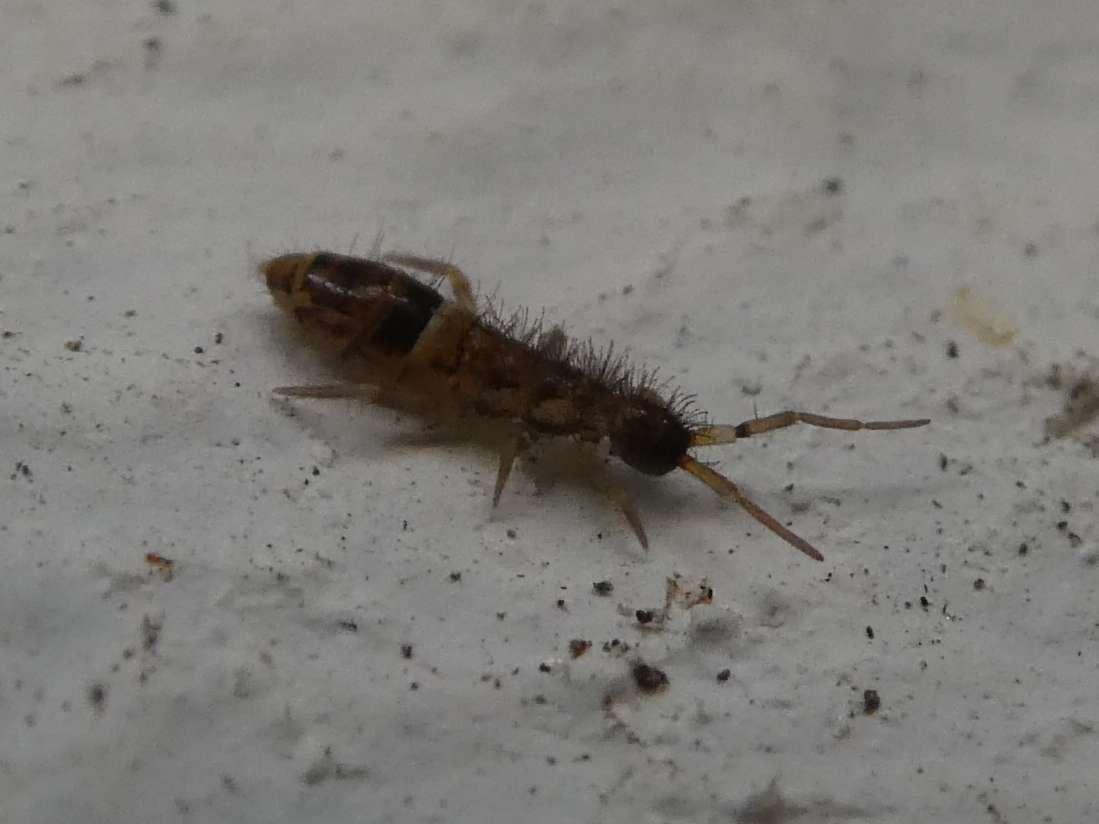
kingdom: Animalia
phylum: Arthropoda
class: Collembola
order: Entomobryomorpha
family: Orchesellidae
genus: Orchesella
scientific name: Orchesella cincta
